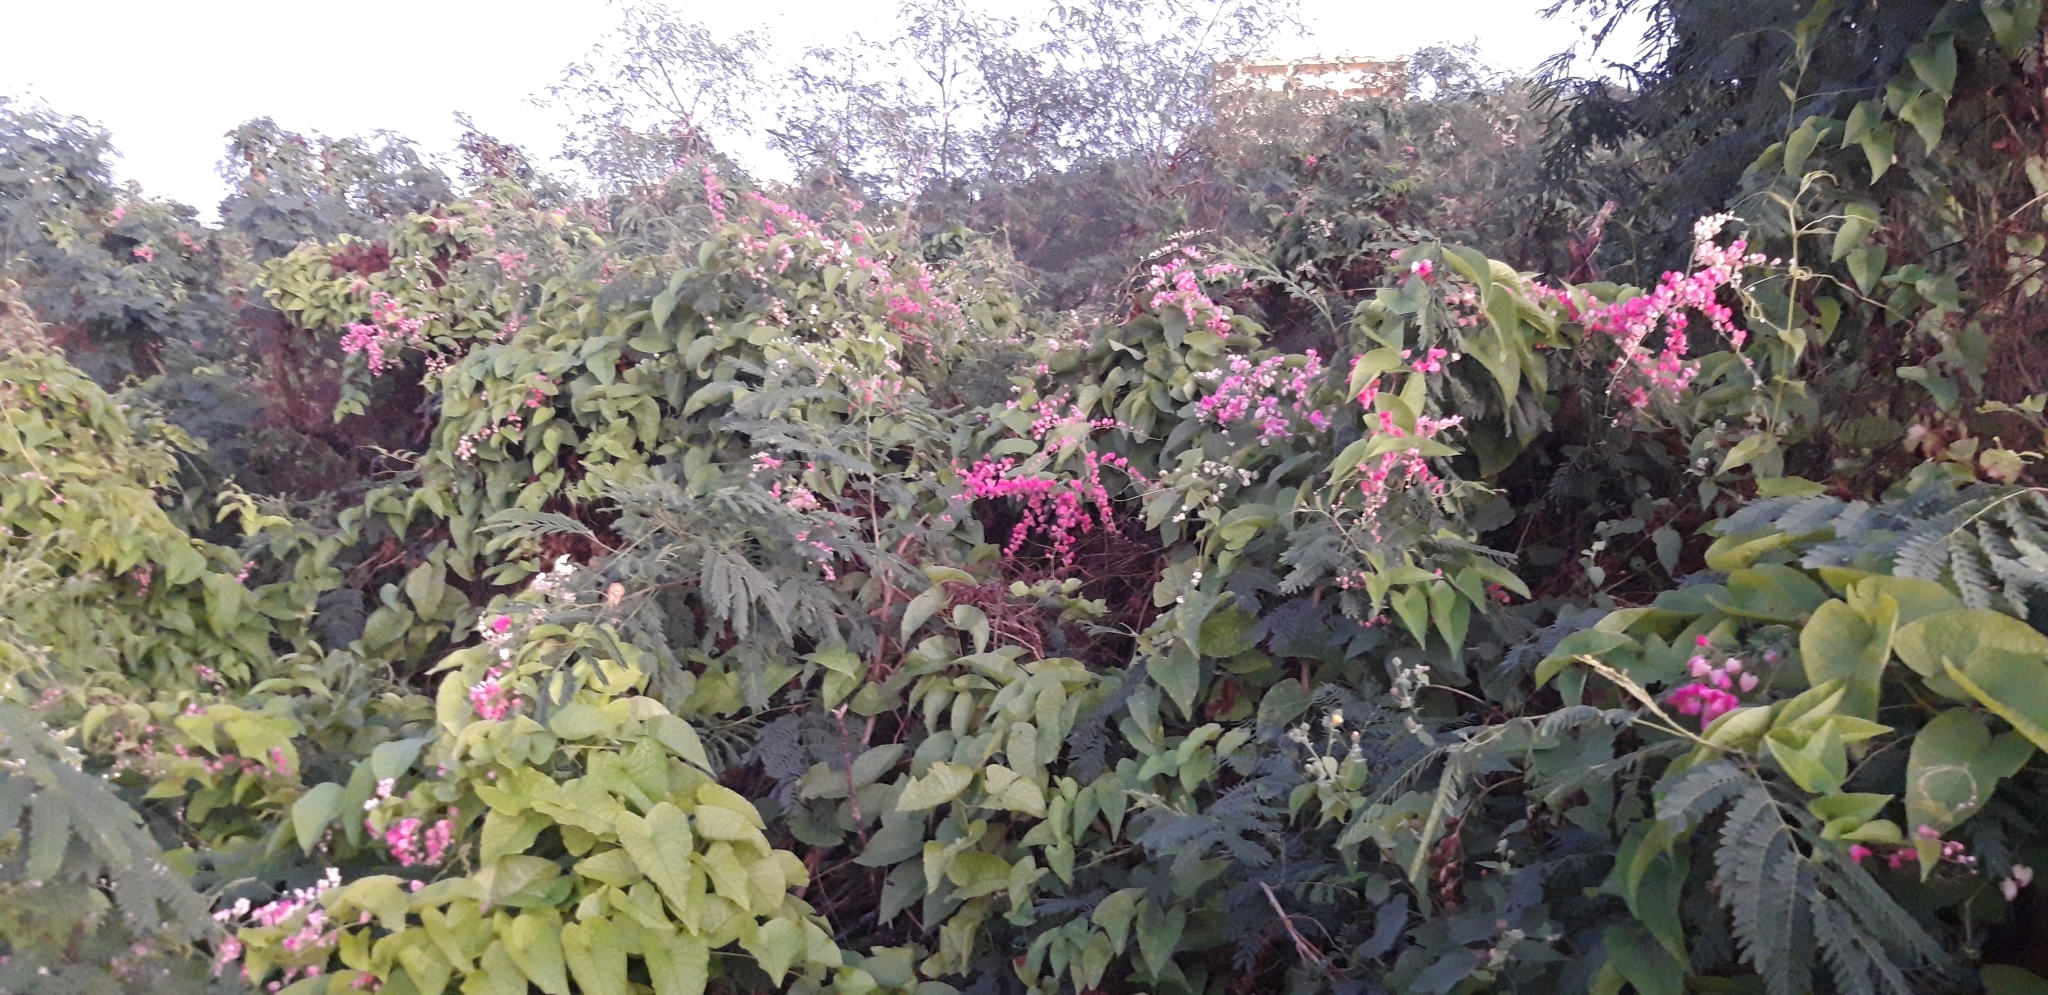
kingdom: Plantae
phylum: Tracheophyta
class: Magnoliopsida
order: Caryophyllales
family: Polygonaceae
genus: Antigonon
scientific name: Antigonon leptopus
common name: Coral vine
